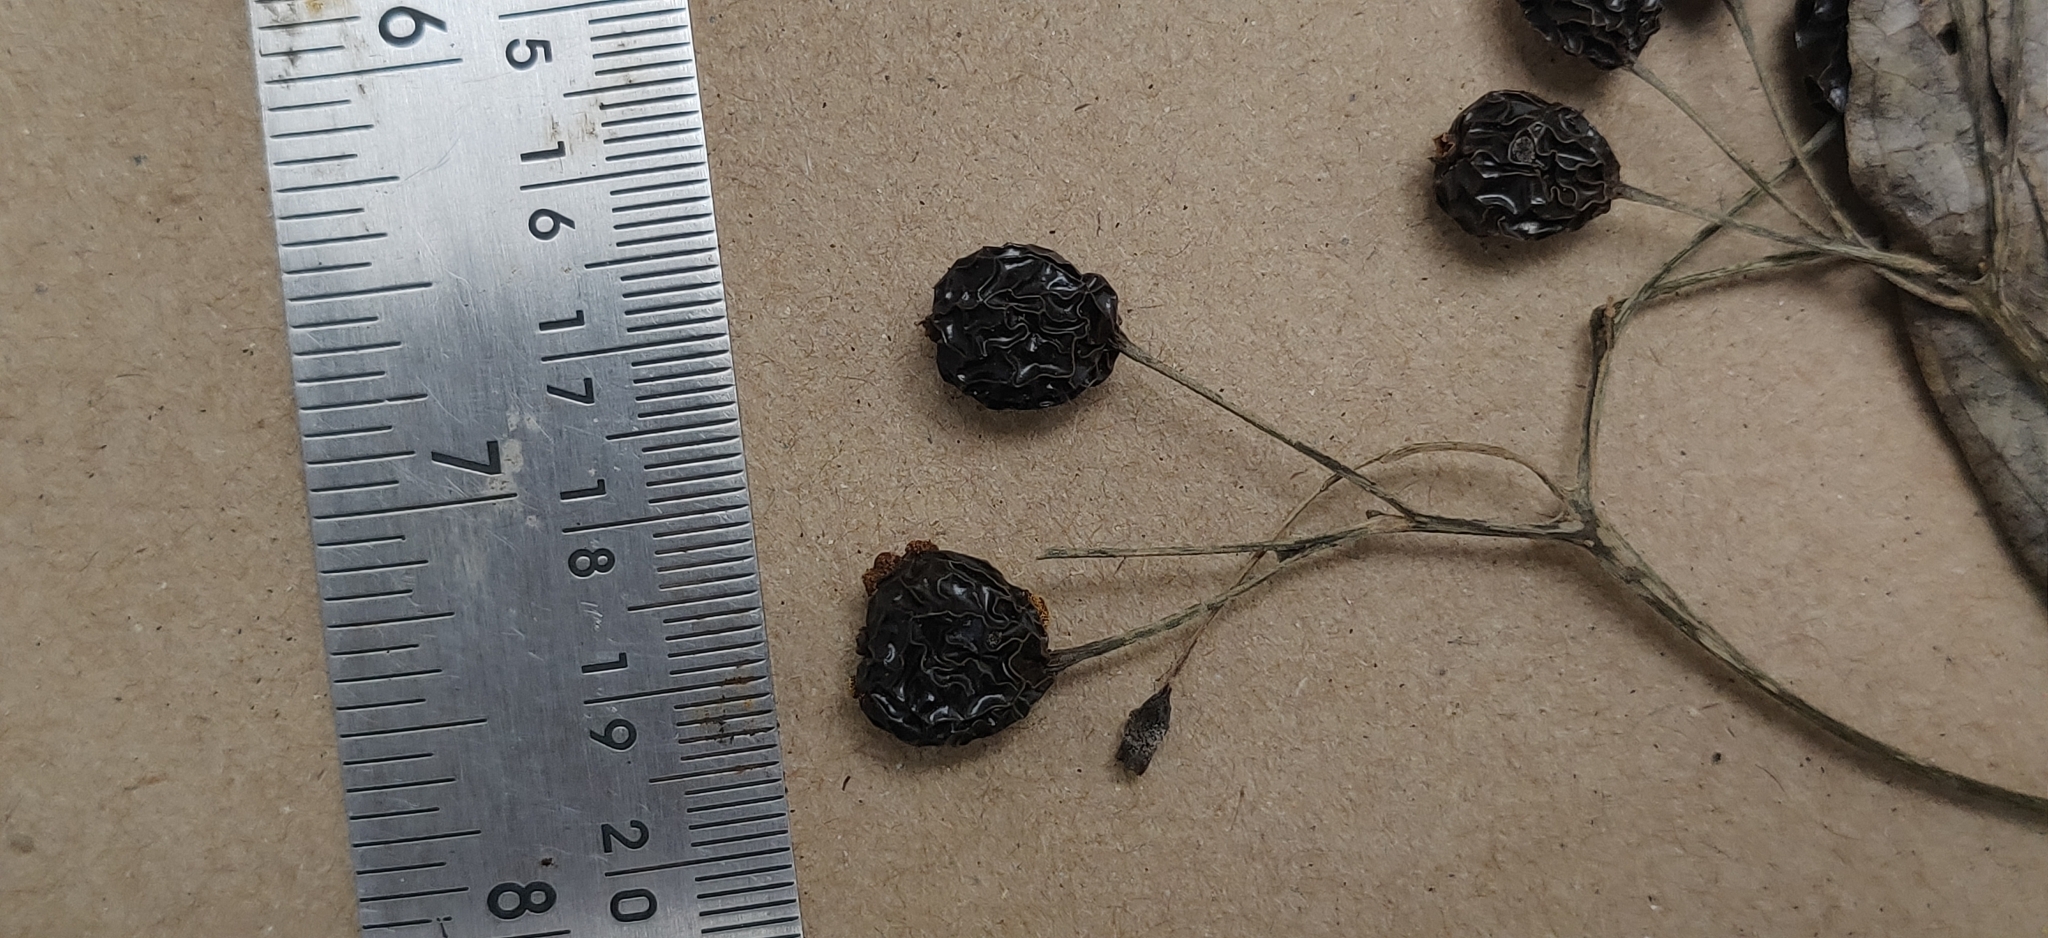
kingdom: Plantae
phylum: Tracheophyta
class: Magnoliopsida
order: Gentianales
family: Rubiaceae
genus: Psychotria
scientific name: Psychotria nigra
